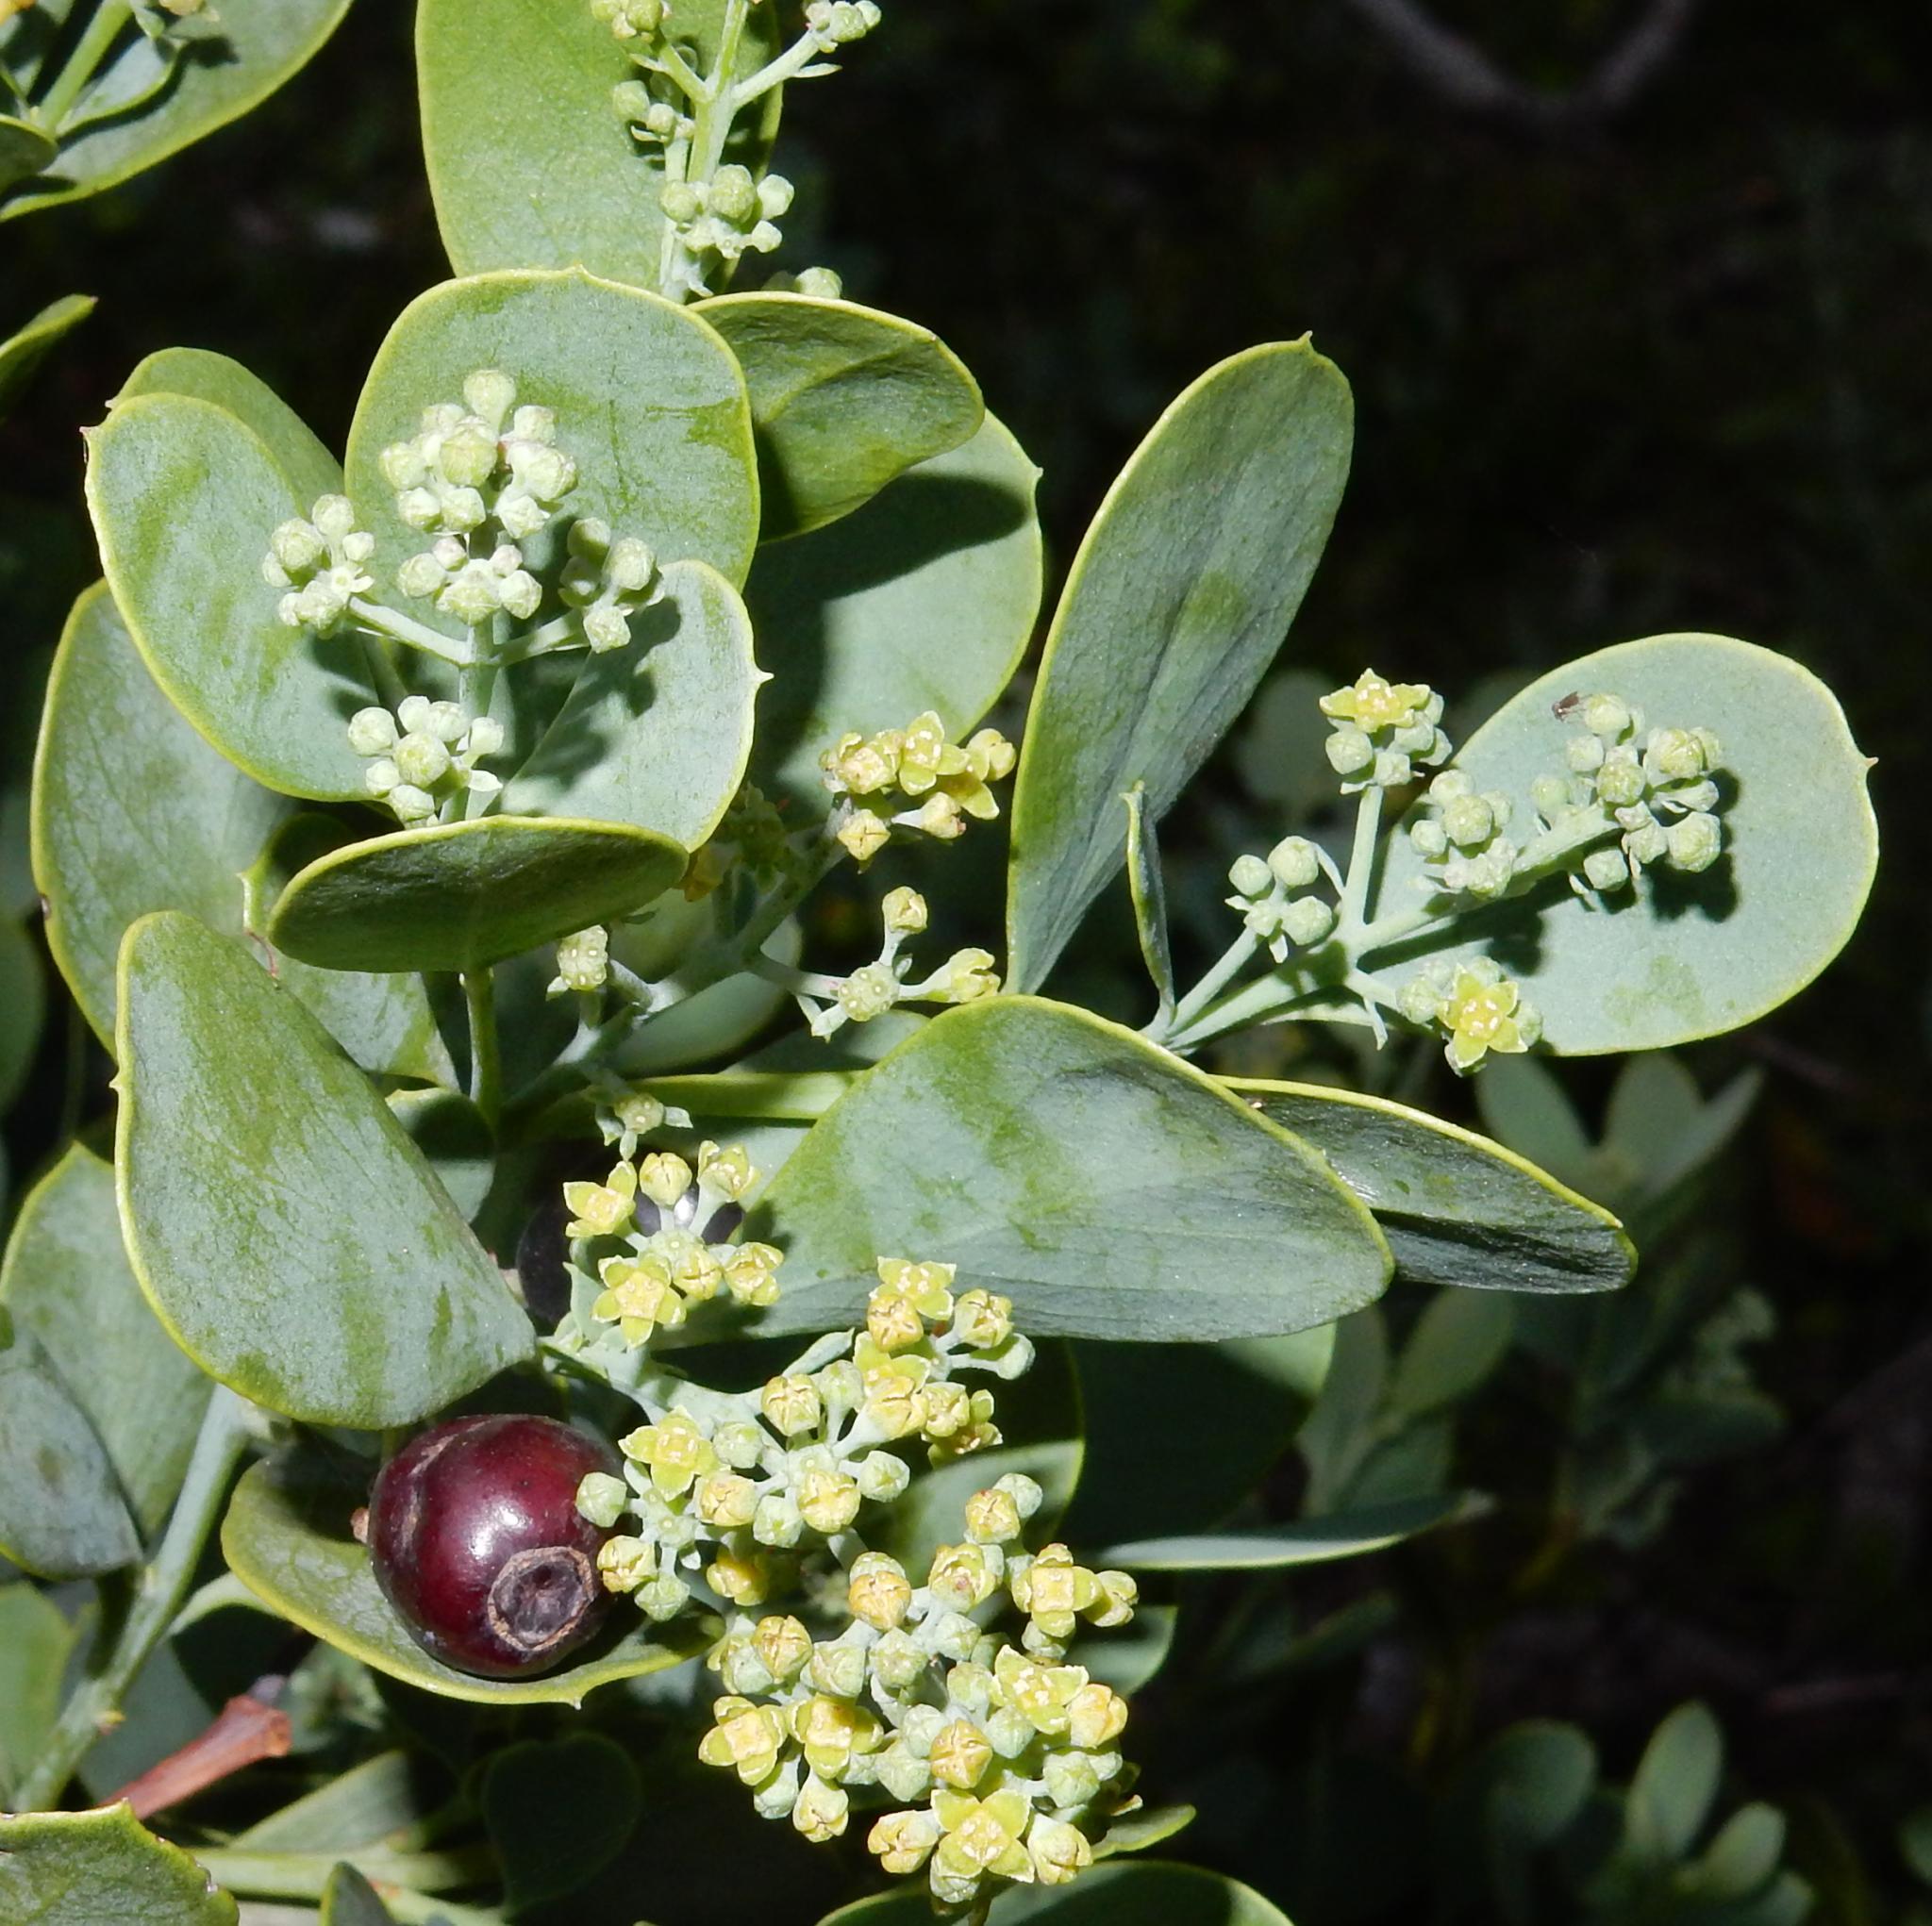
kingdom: Plantae
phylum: Tracheophyta
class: Magnoliopsida
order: Santalales
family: Santalaceae
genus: Osyris
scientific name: Osyris compressa
